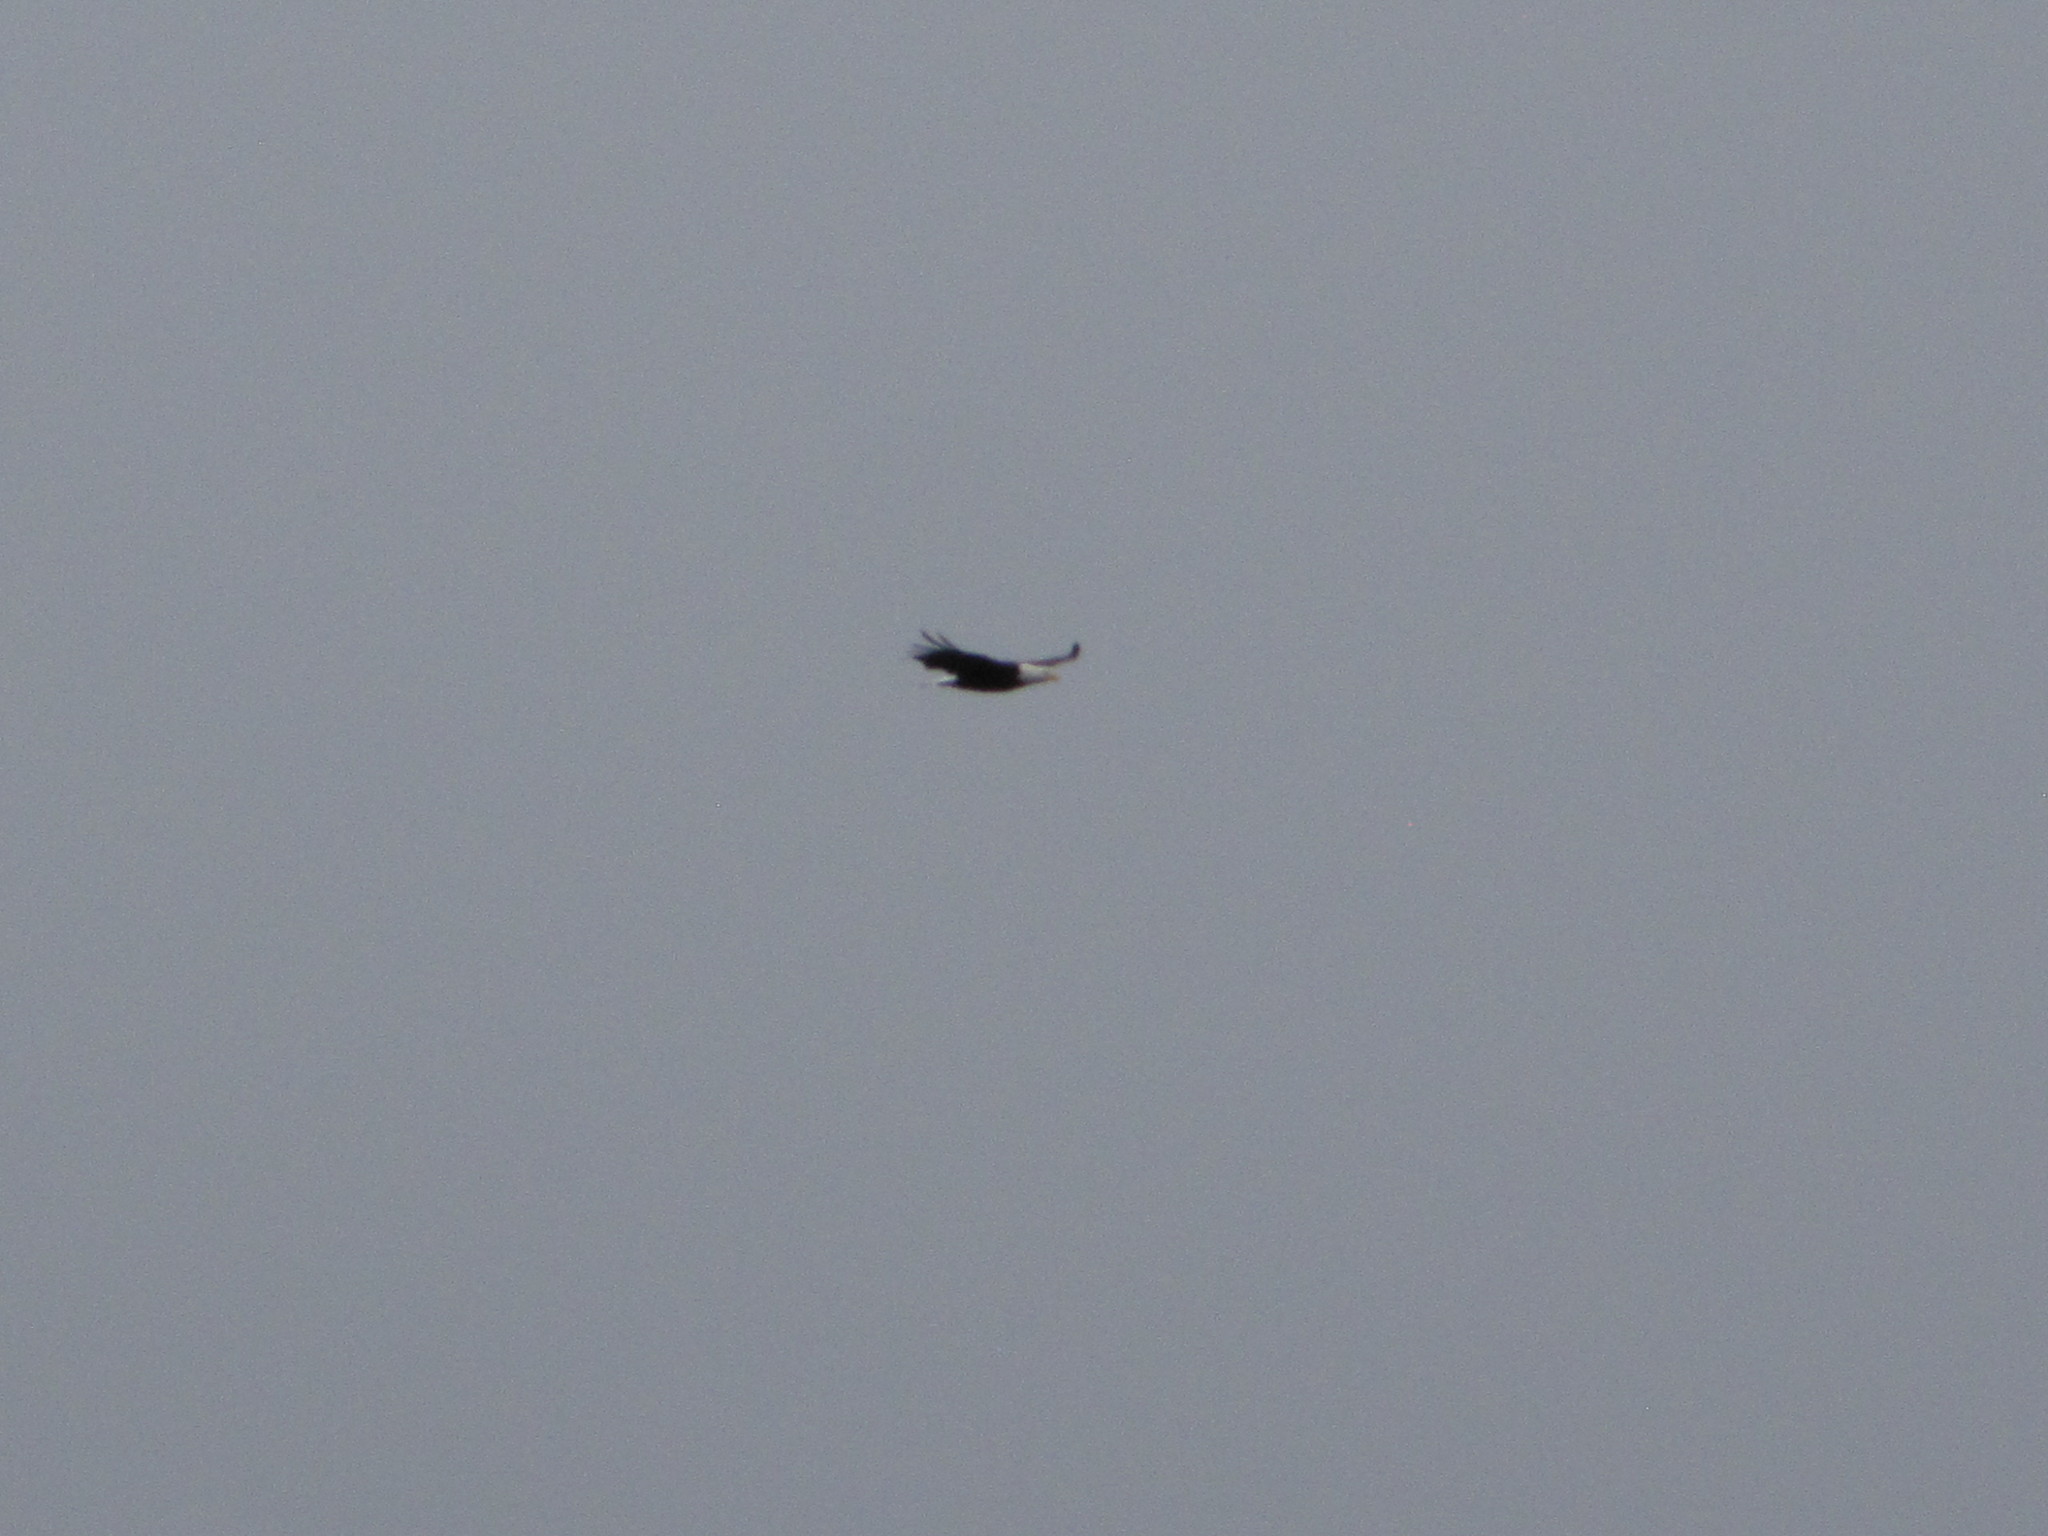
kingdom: Animalia
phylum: Chordata
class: Aves
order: Accipitriformes
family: Accipitridae
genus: Haliaeetus
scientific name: Haliaeetus leucocephalus
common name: Bald eagle
